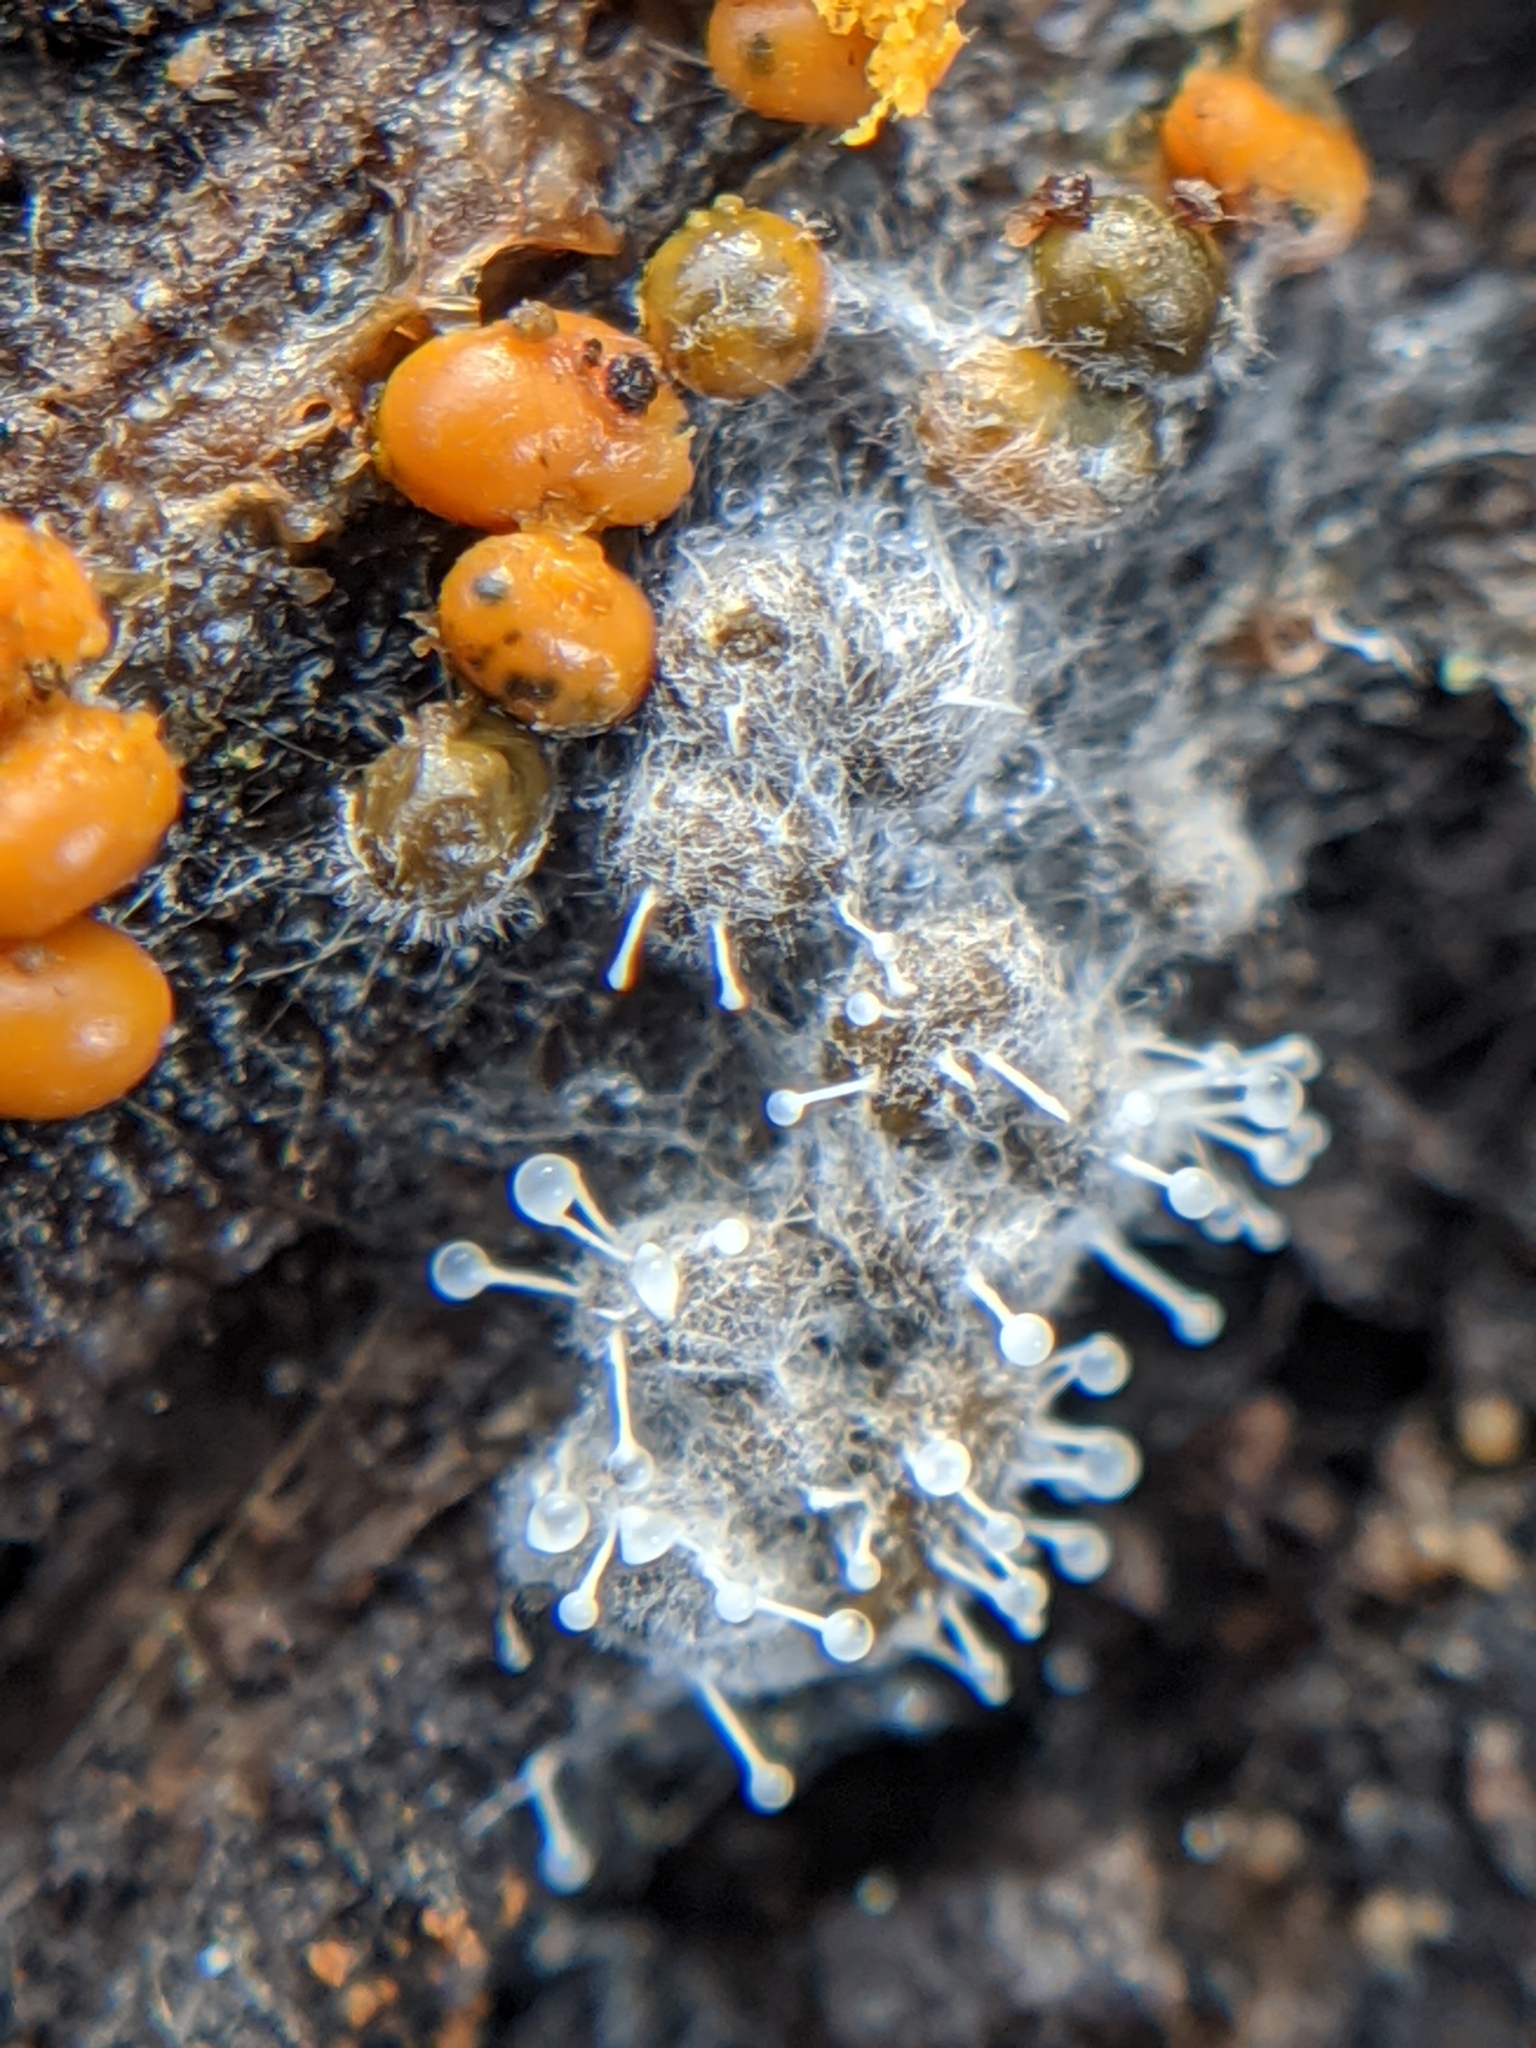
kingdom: Fungi
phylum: Ascomycota
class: Sordariomycetes
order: Hypocreales
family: Ophiocordycipitaceae
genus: Polycephalomyces
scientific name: Polycephalomyces tomentosus
